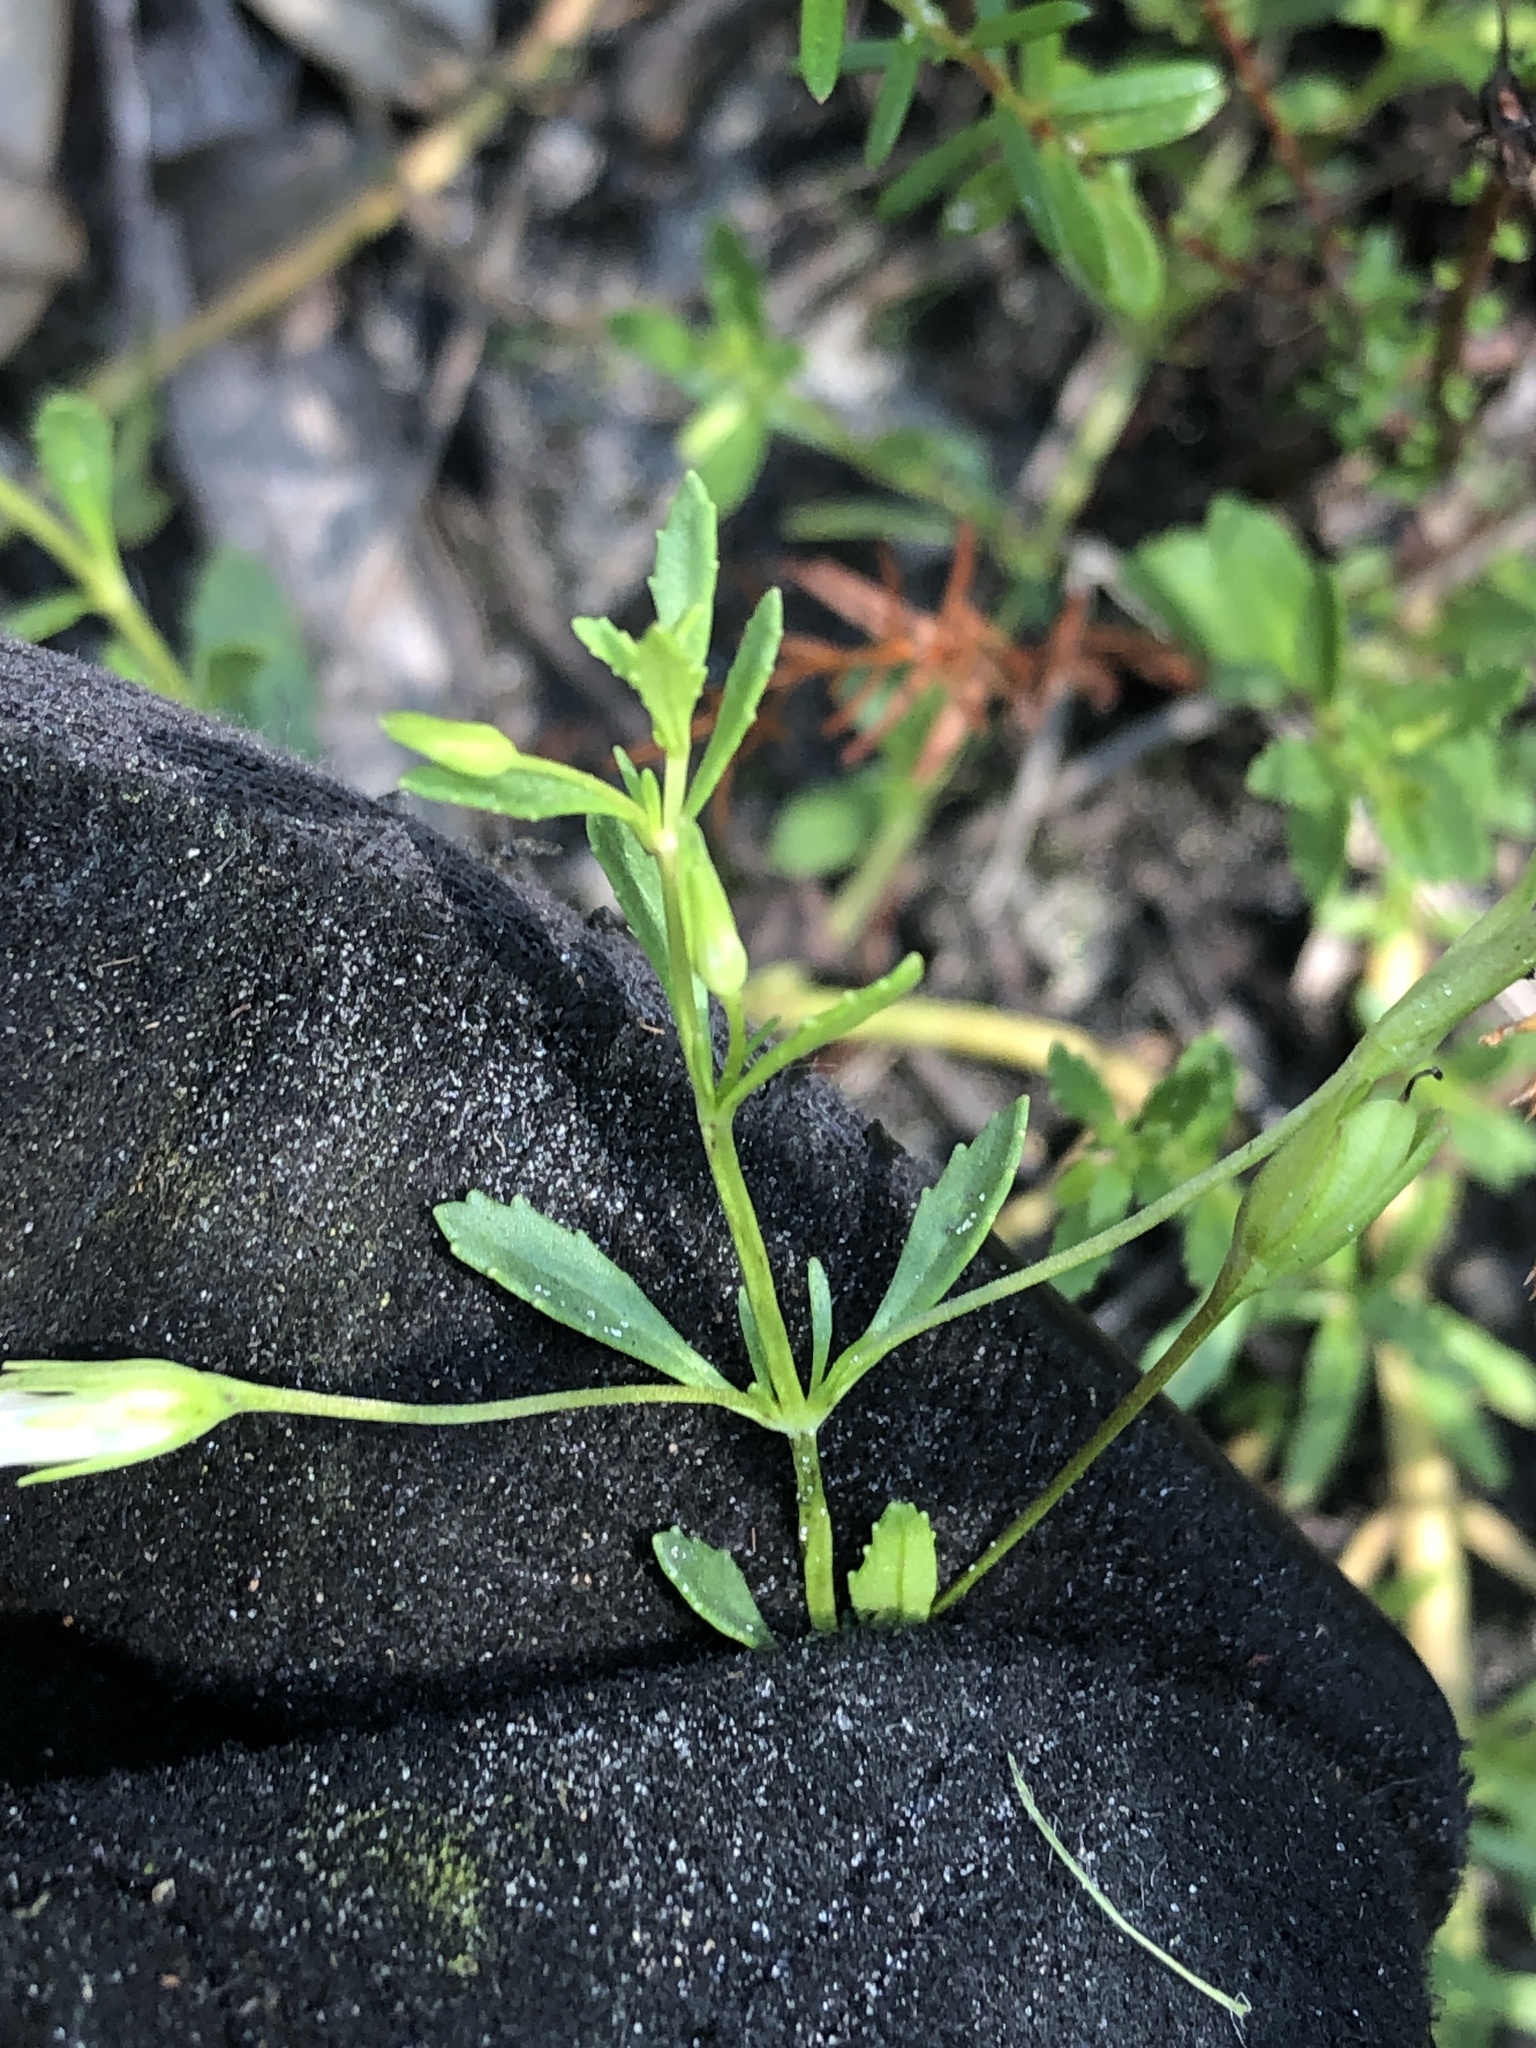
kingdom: Plantae
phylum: Tracheophyta
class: Magnoliopsida
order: Lamiales
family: Plantaginaceae
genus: Mecardonia
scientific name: Mecardonia acuminata
